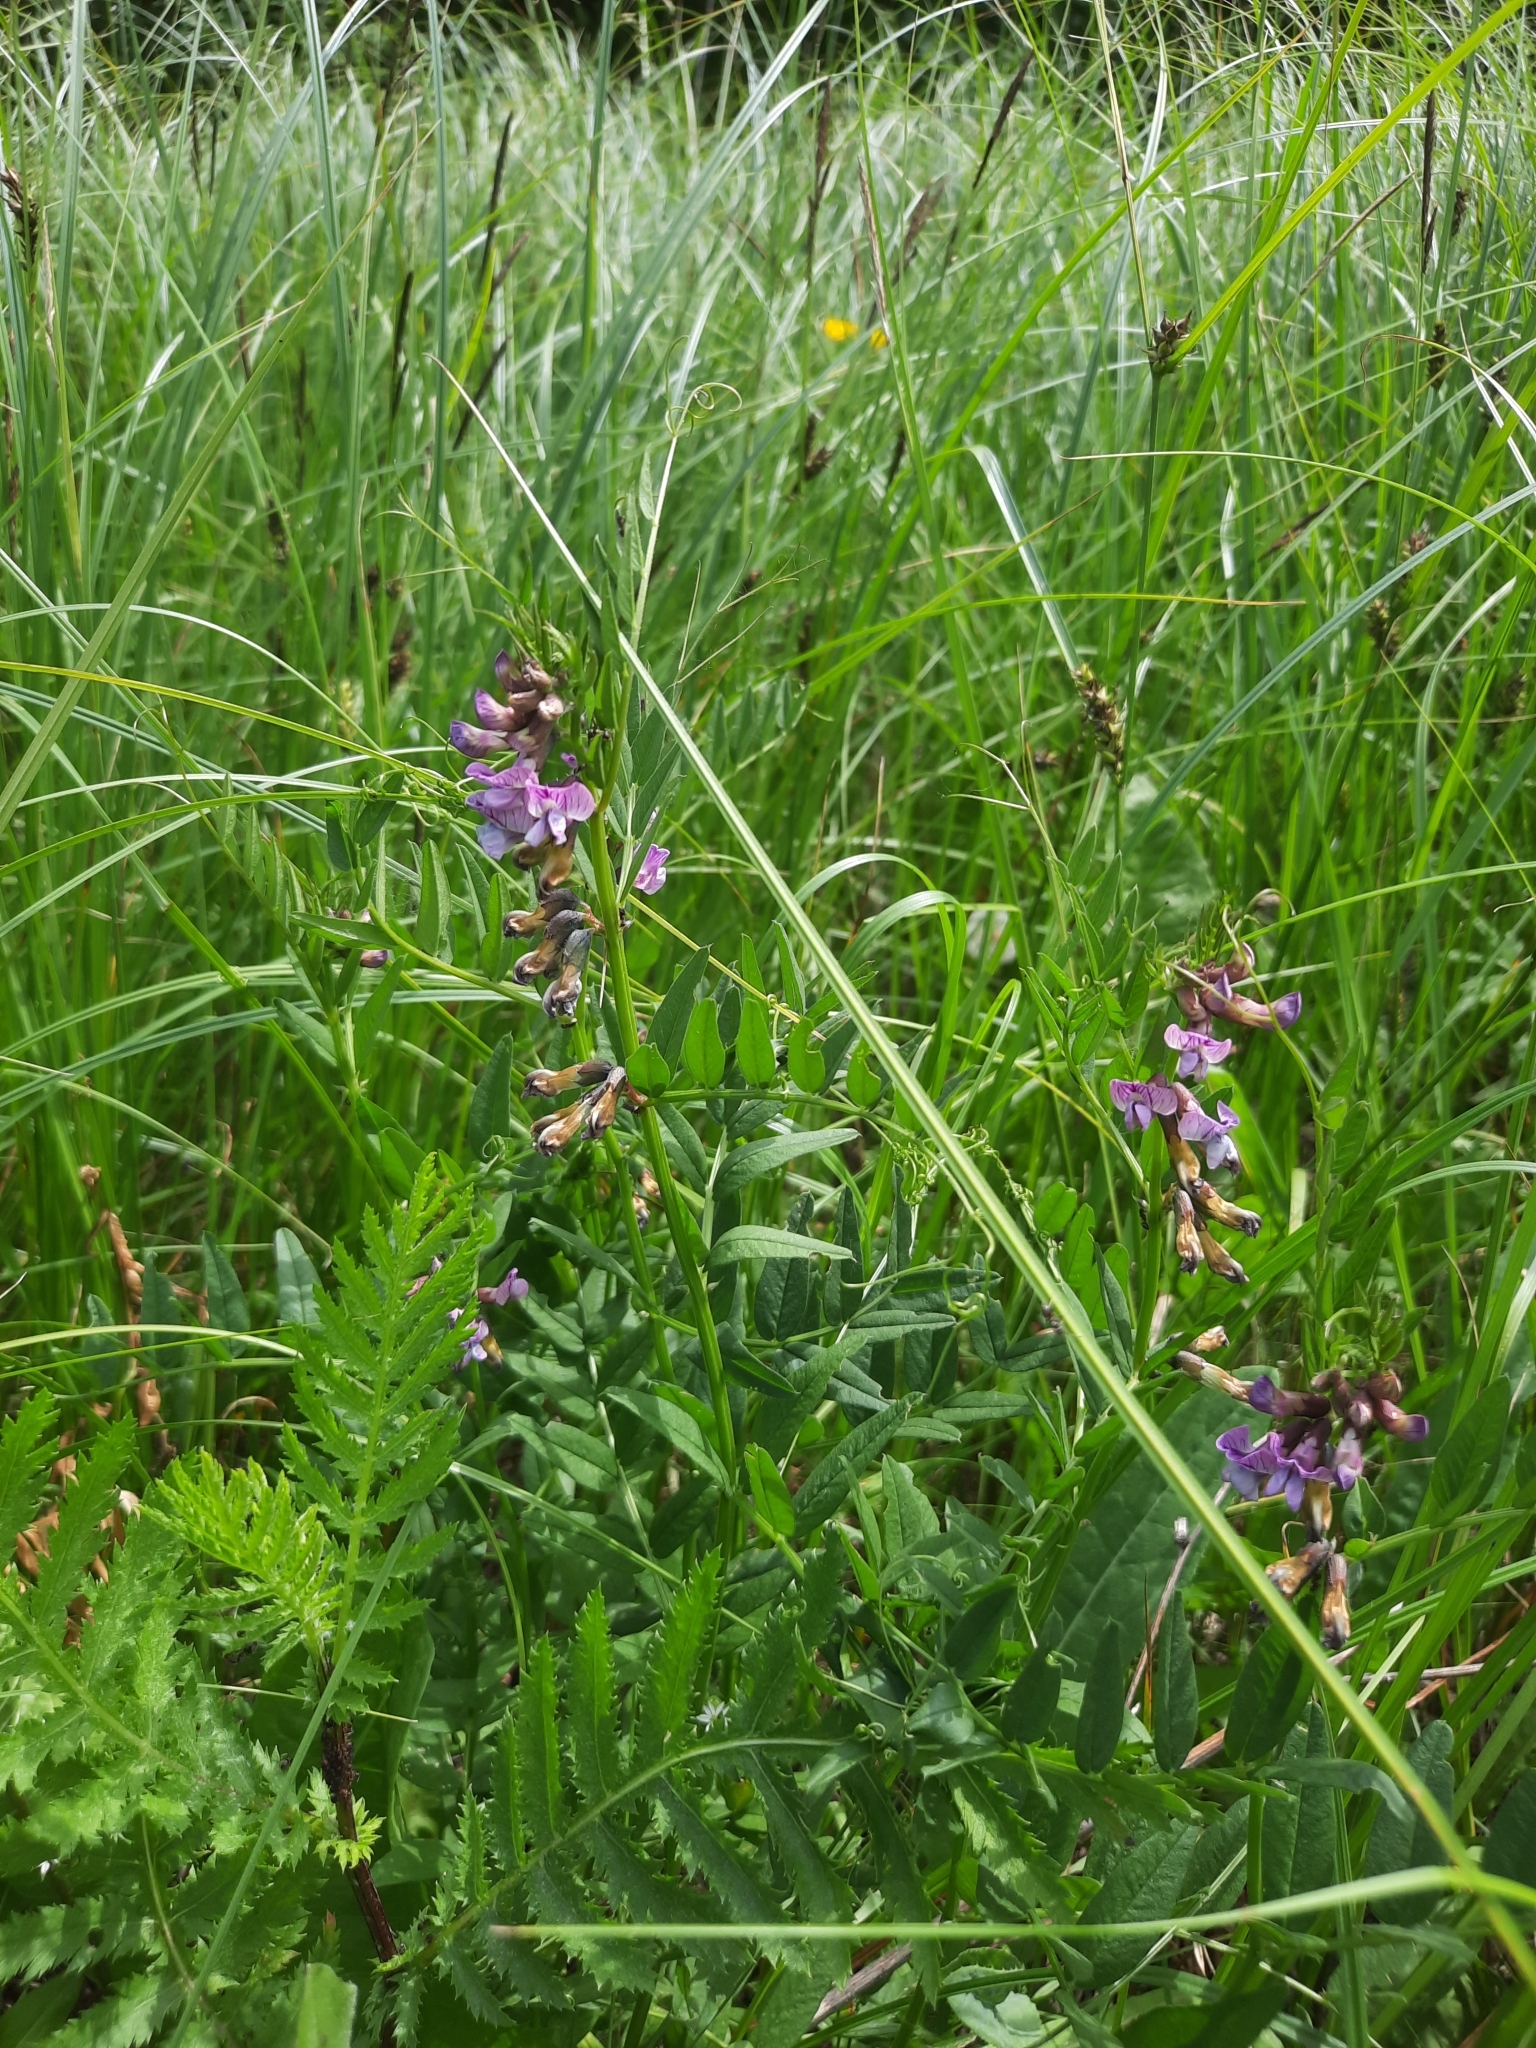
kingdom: Plantae
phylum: Tracheophyta
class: Magnoliopsida
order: Fabales
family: Fabaceae
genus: Vicia
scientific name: Vicia sepium
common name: Bush vetch
